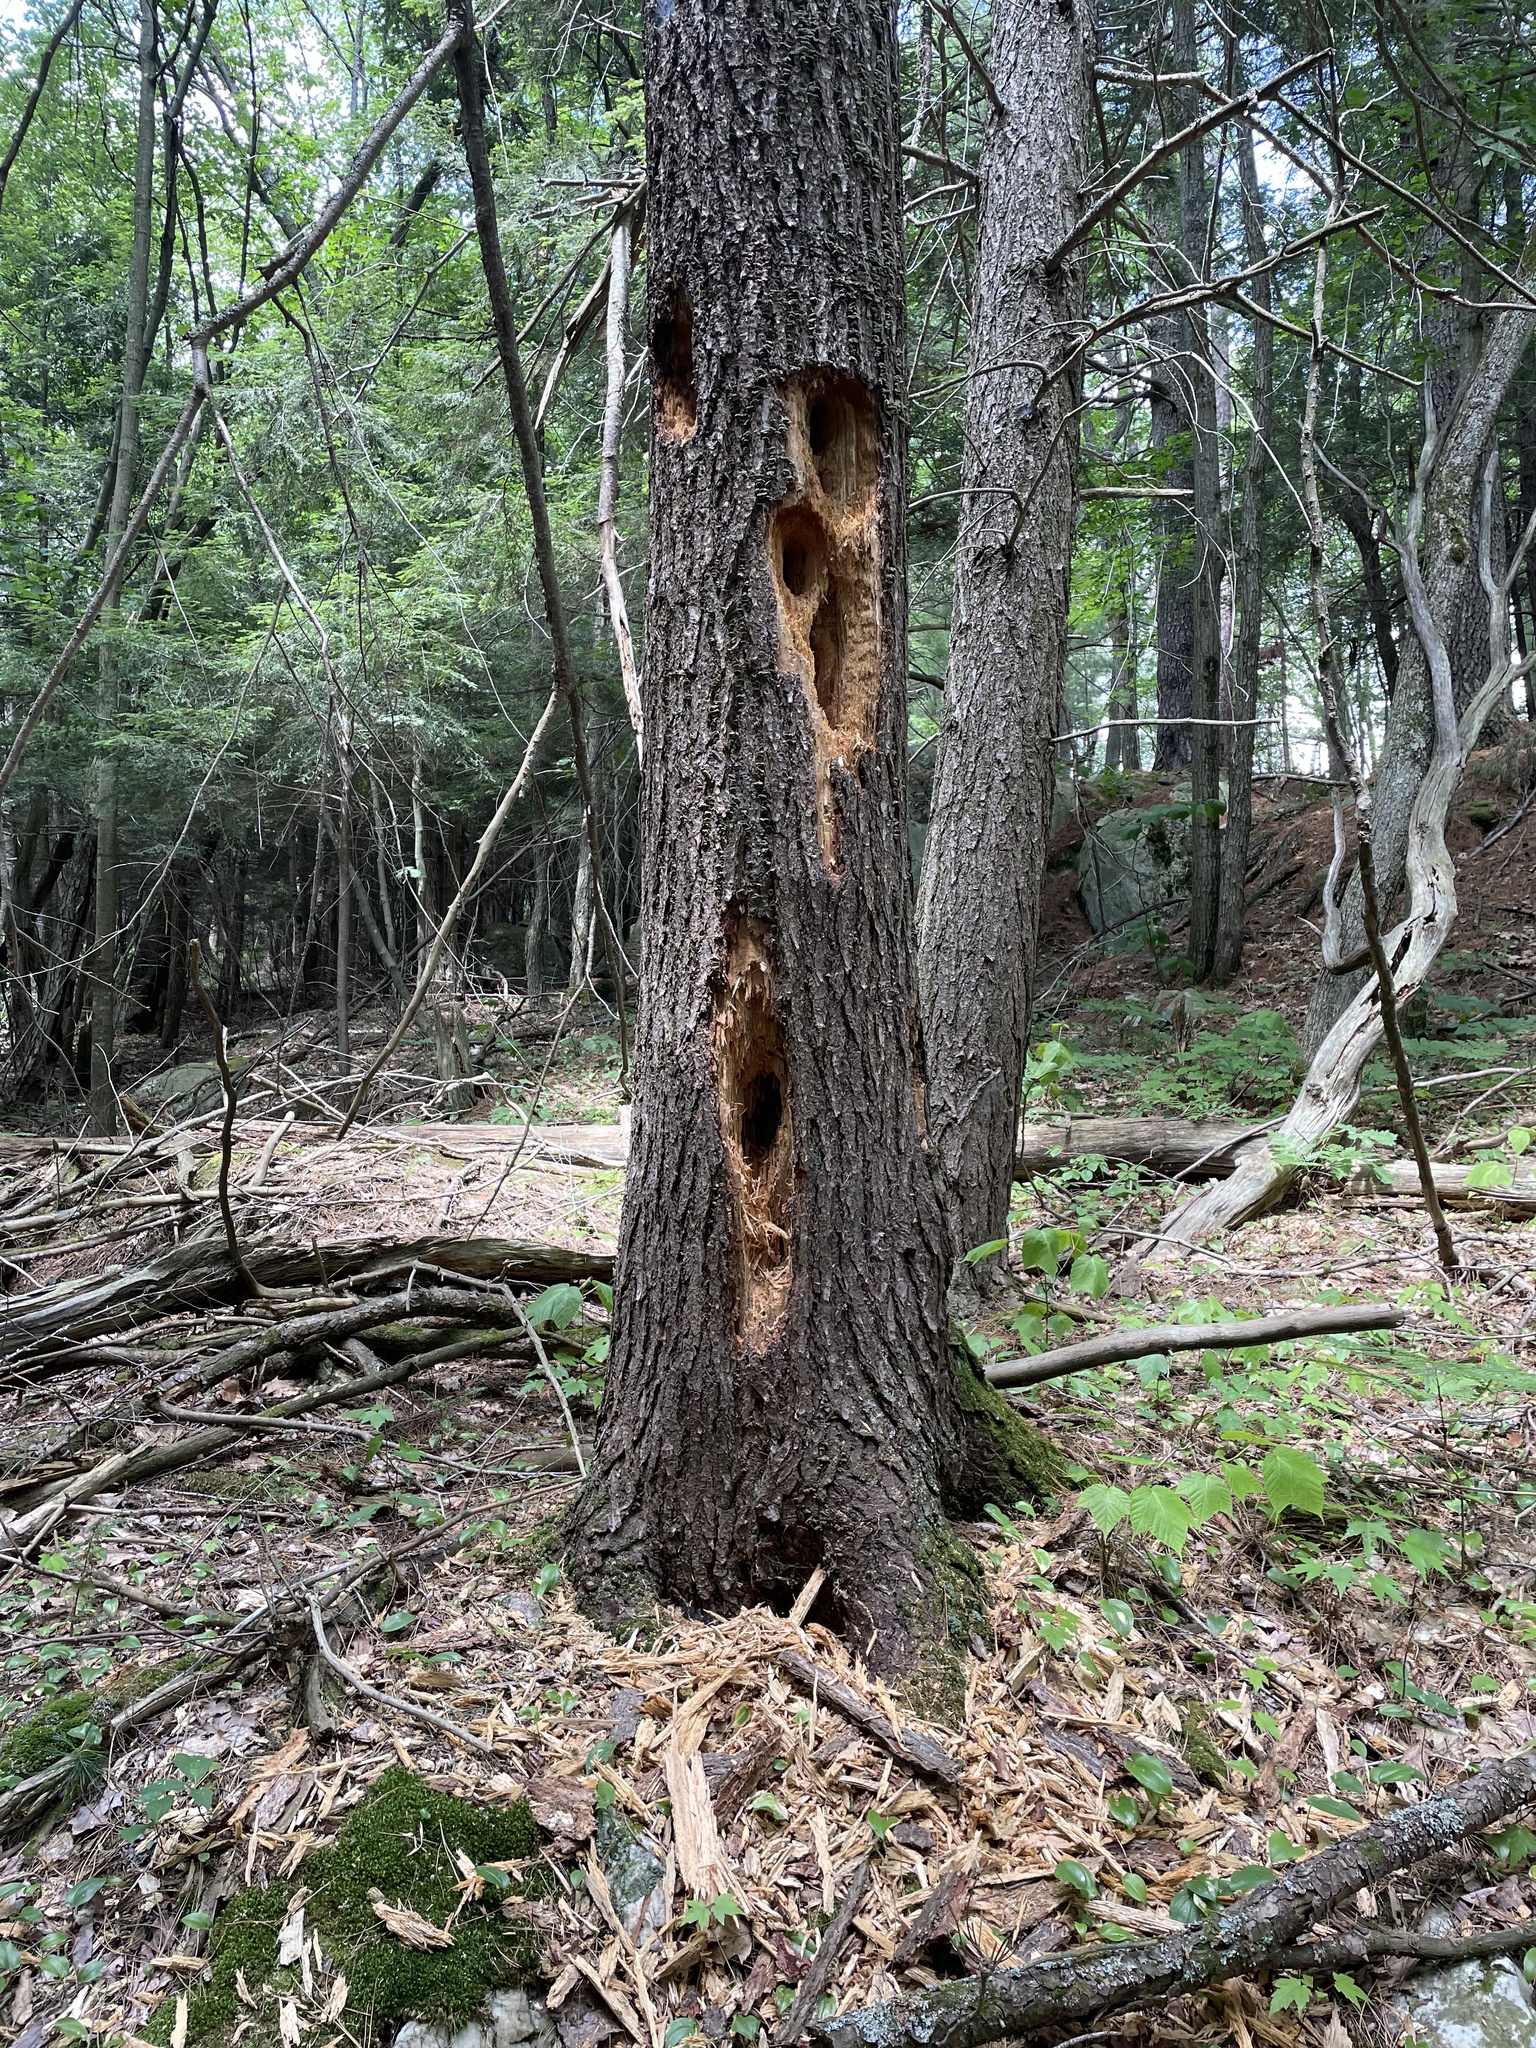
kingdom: Animalia
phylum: Chordata
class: Aves
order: Piciformes
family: Picidae
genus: Dryocopus
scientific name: Dryocopus pileatus
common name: Pileated woodpecker
